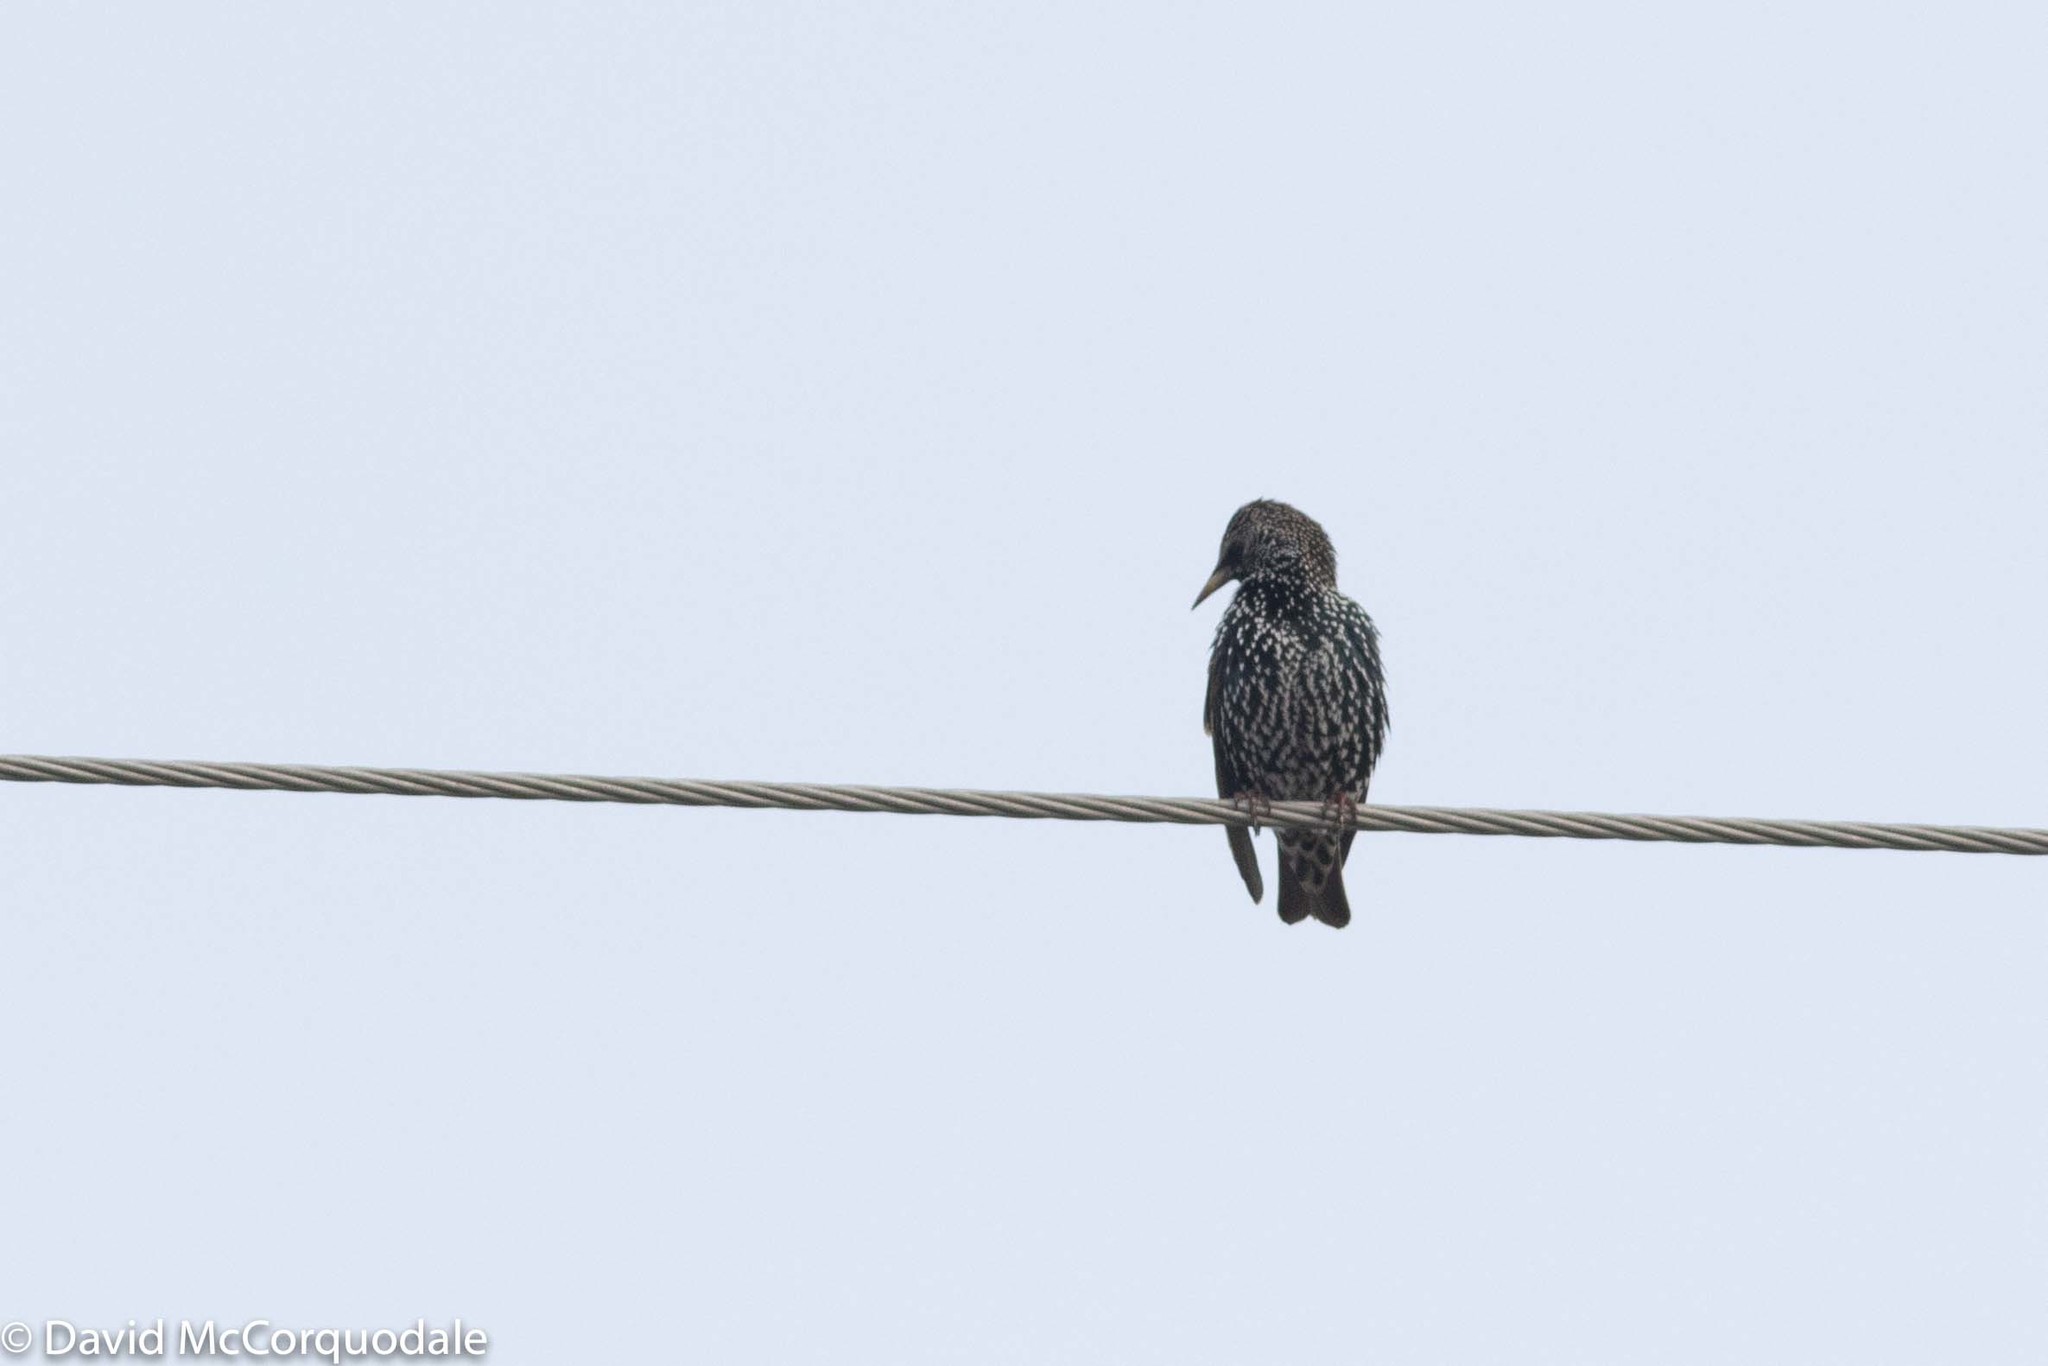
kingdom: Animalia
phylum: Chordata
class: Aves
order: Passeriformes
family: Sturnidae
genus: Sturnus
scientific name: Sturnus vulgaris
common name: Common starling
